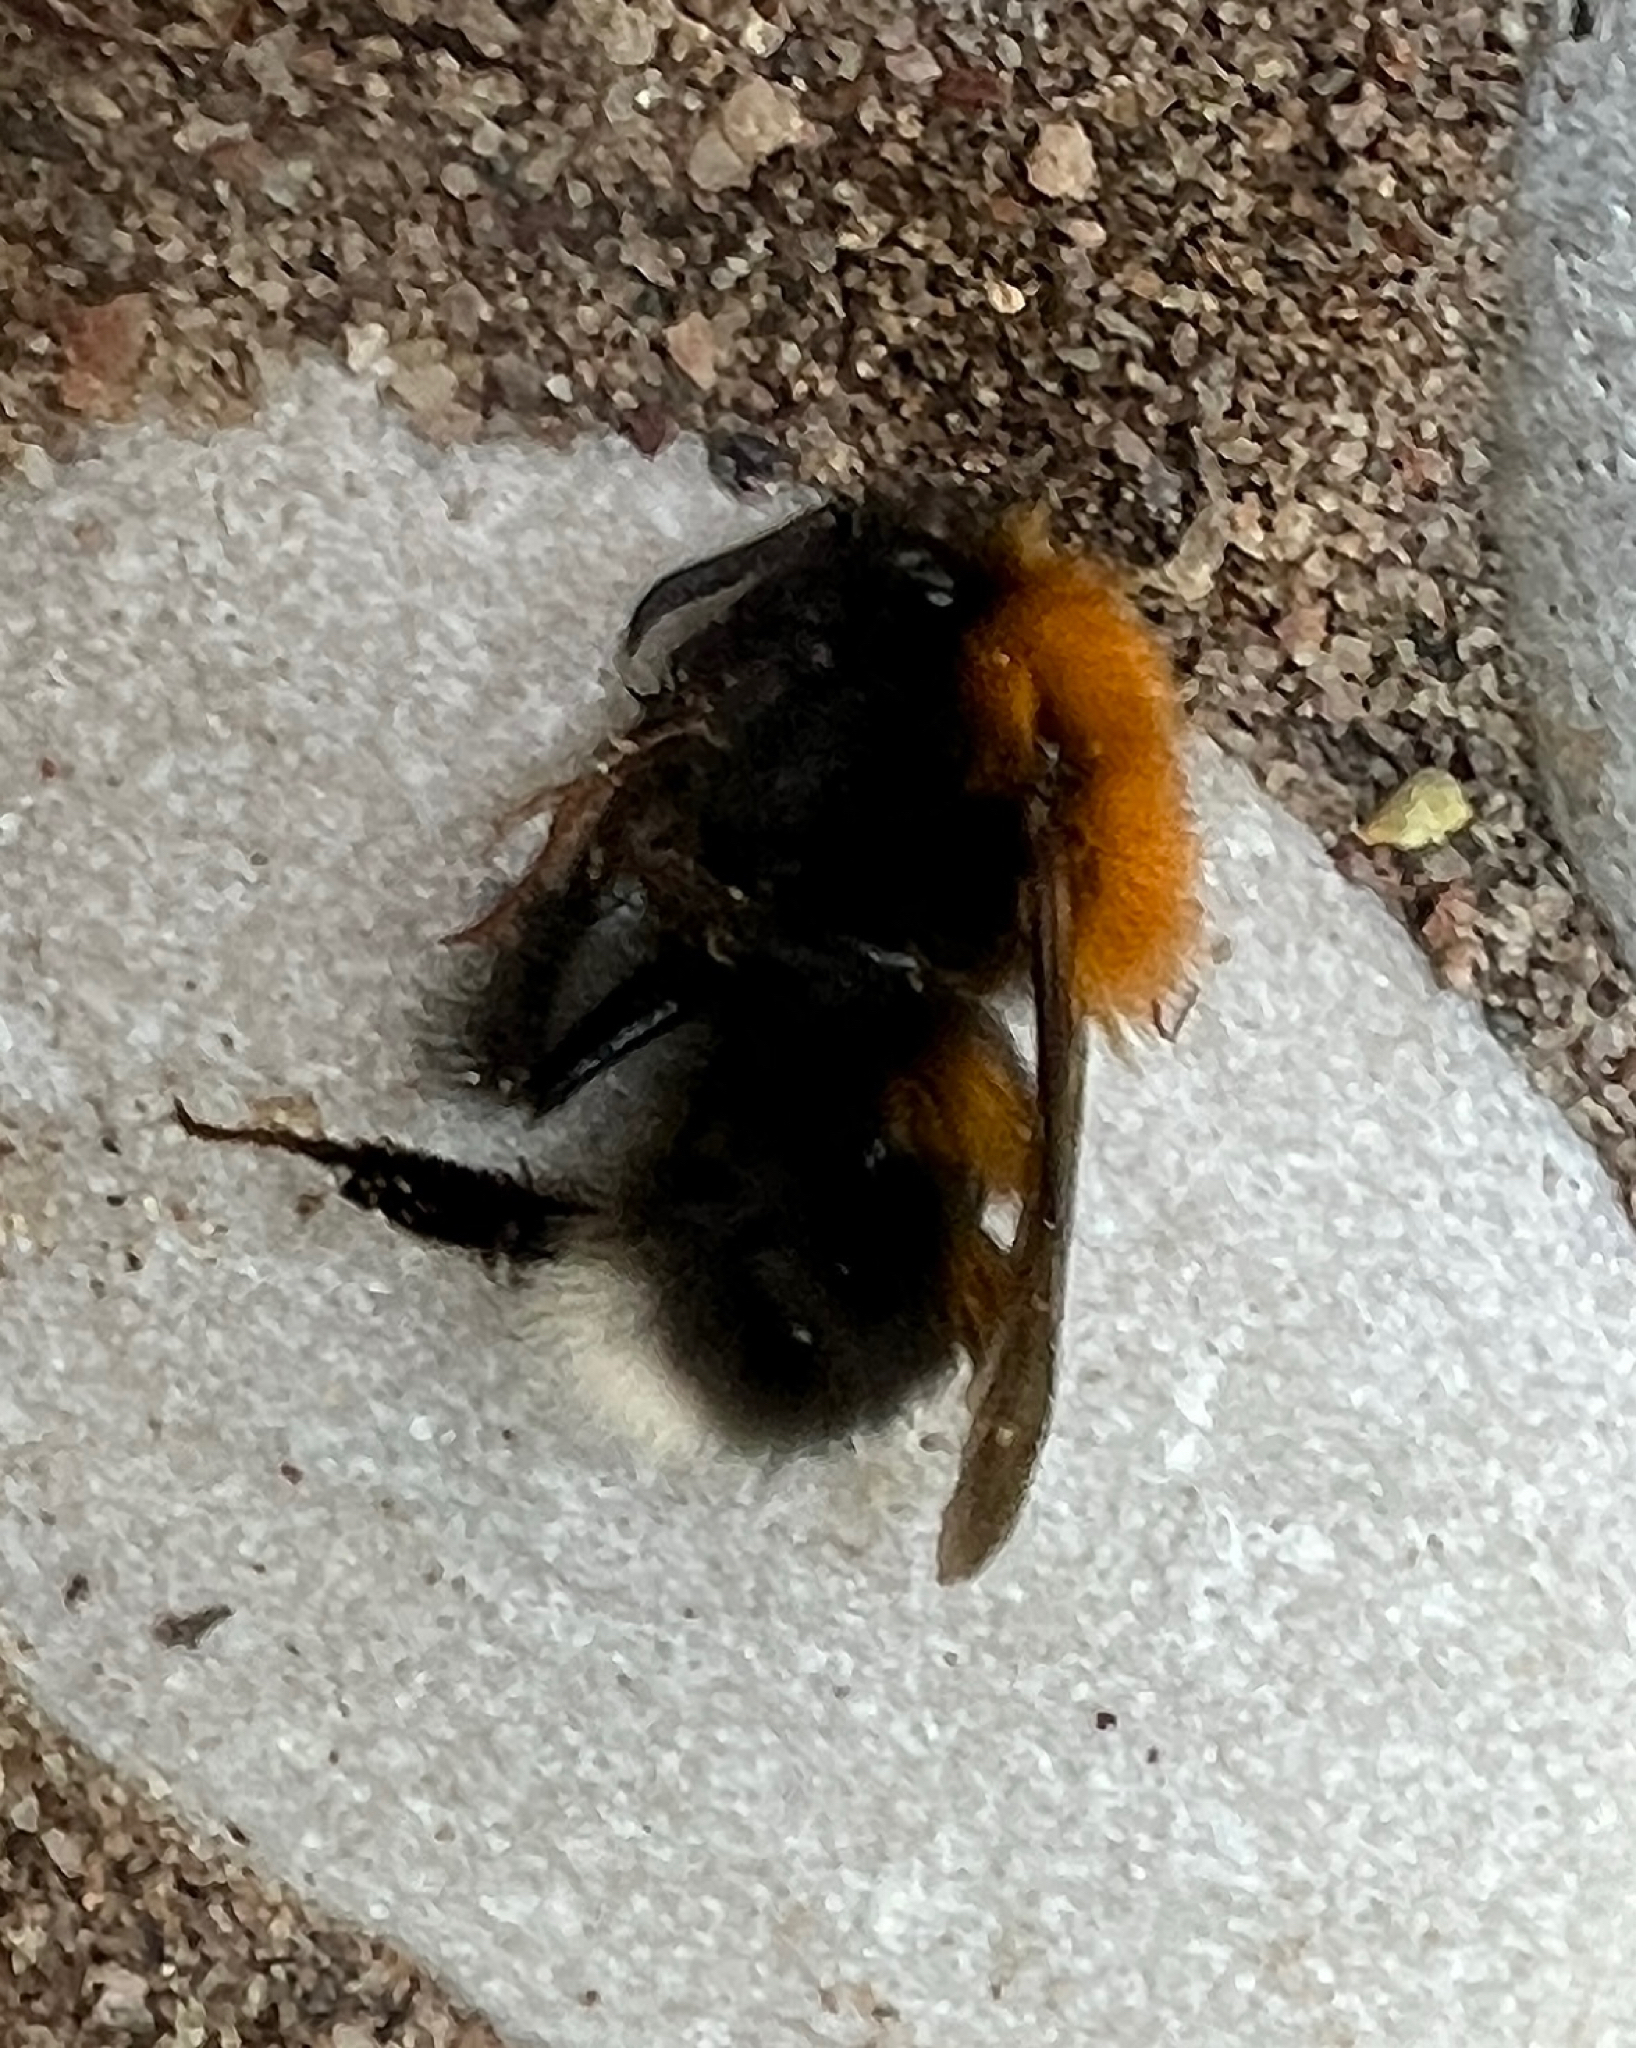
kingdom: Animalia
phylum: Arthropoda
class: Insecta
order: Hymenoptera
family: Apidae
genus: Bombus
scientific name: Bombus hypnorum
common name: New garden bumblebee
